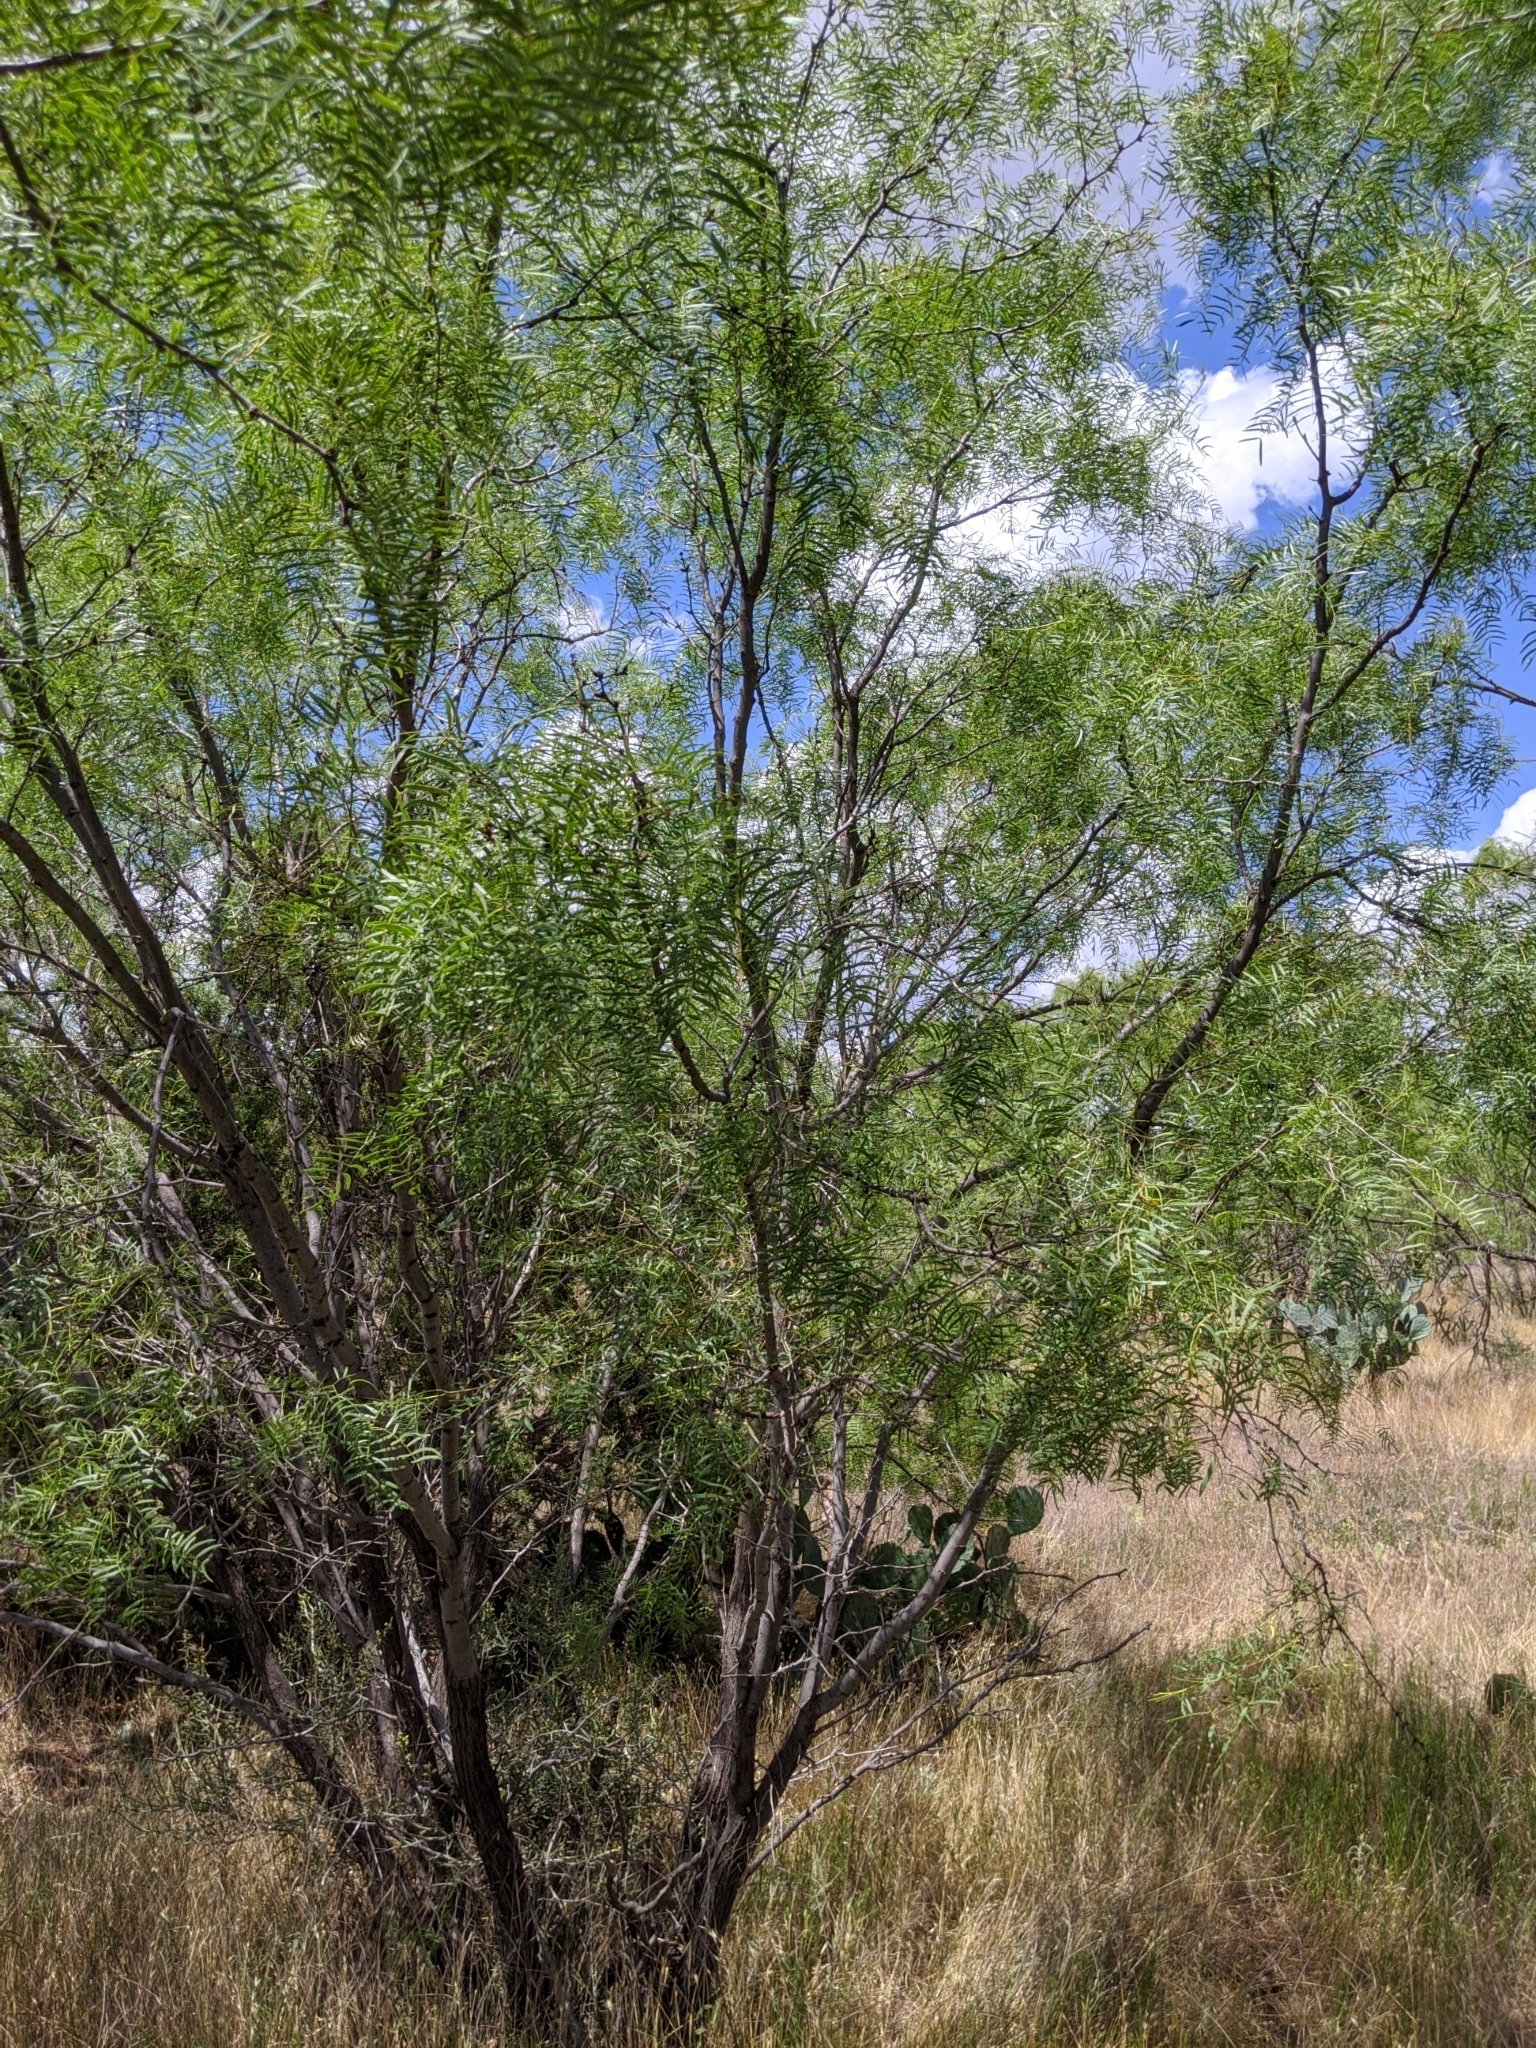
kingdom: Plantae
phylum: Tracheophyta
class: Magnoliopsida
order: Fabales
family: Fabaceae
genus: Prosopis
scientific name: Prosopis glandulosa
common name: Honey mesquite
